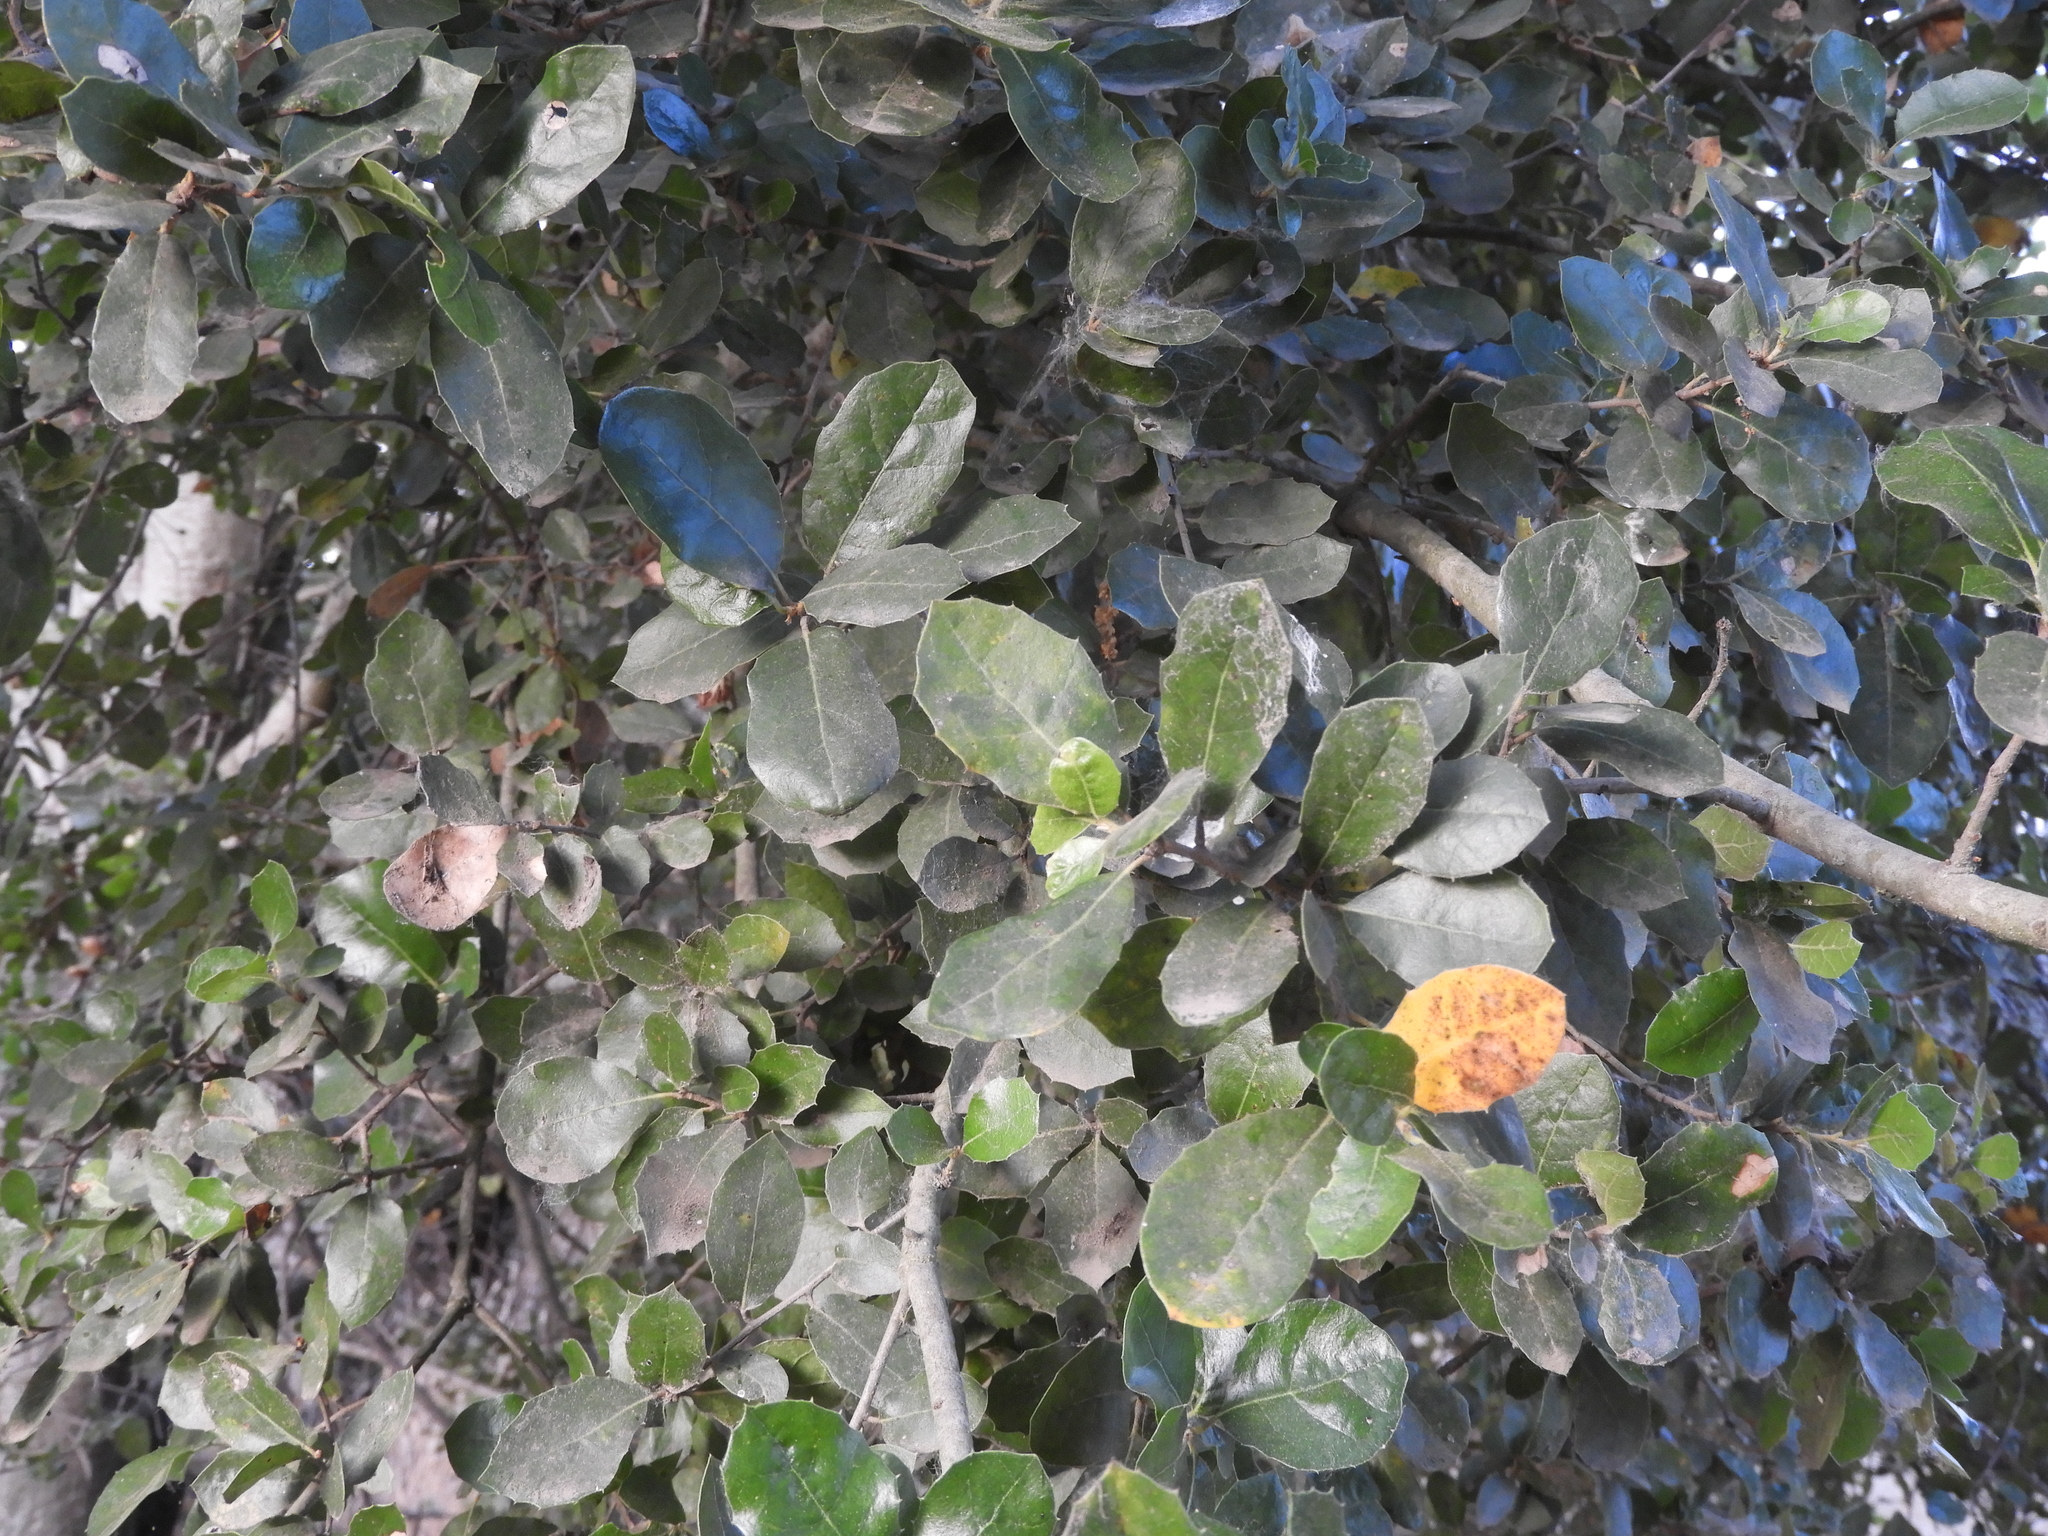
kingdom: Plantae
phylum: Tracheophyta
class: Magnoliopsida
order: Fagales
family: Fagaceae
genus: Quercus
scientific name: Quercus agrifolia
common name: California live oak
